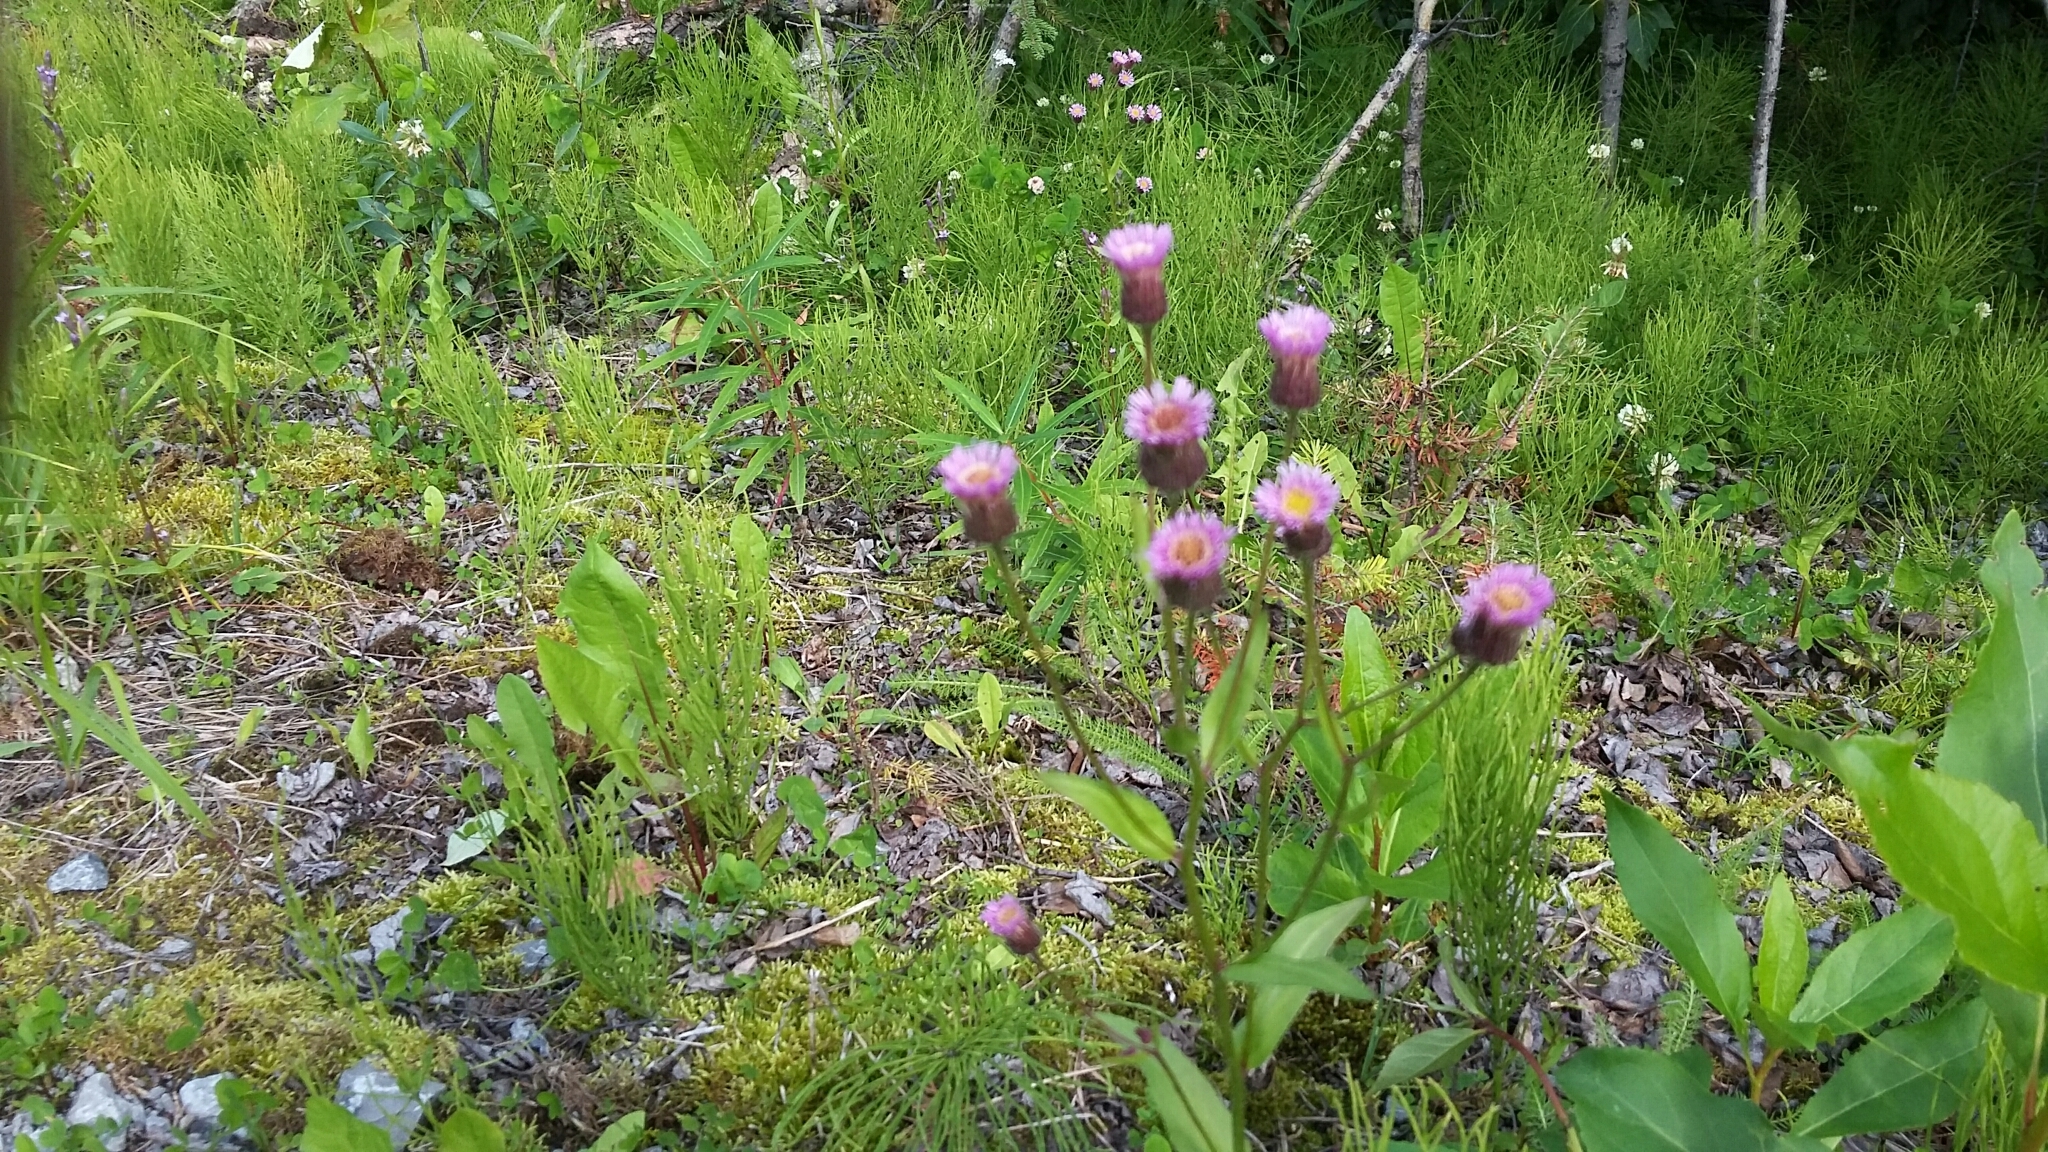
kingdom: Plantae
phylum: Tracheophyta
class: Magnoliopsida
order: Asterales
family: Asteraceae
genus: Erigeron
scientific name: Erigeron acris
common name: Blue fleabane
